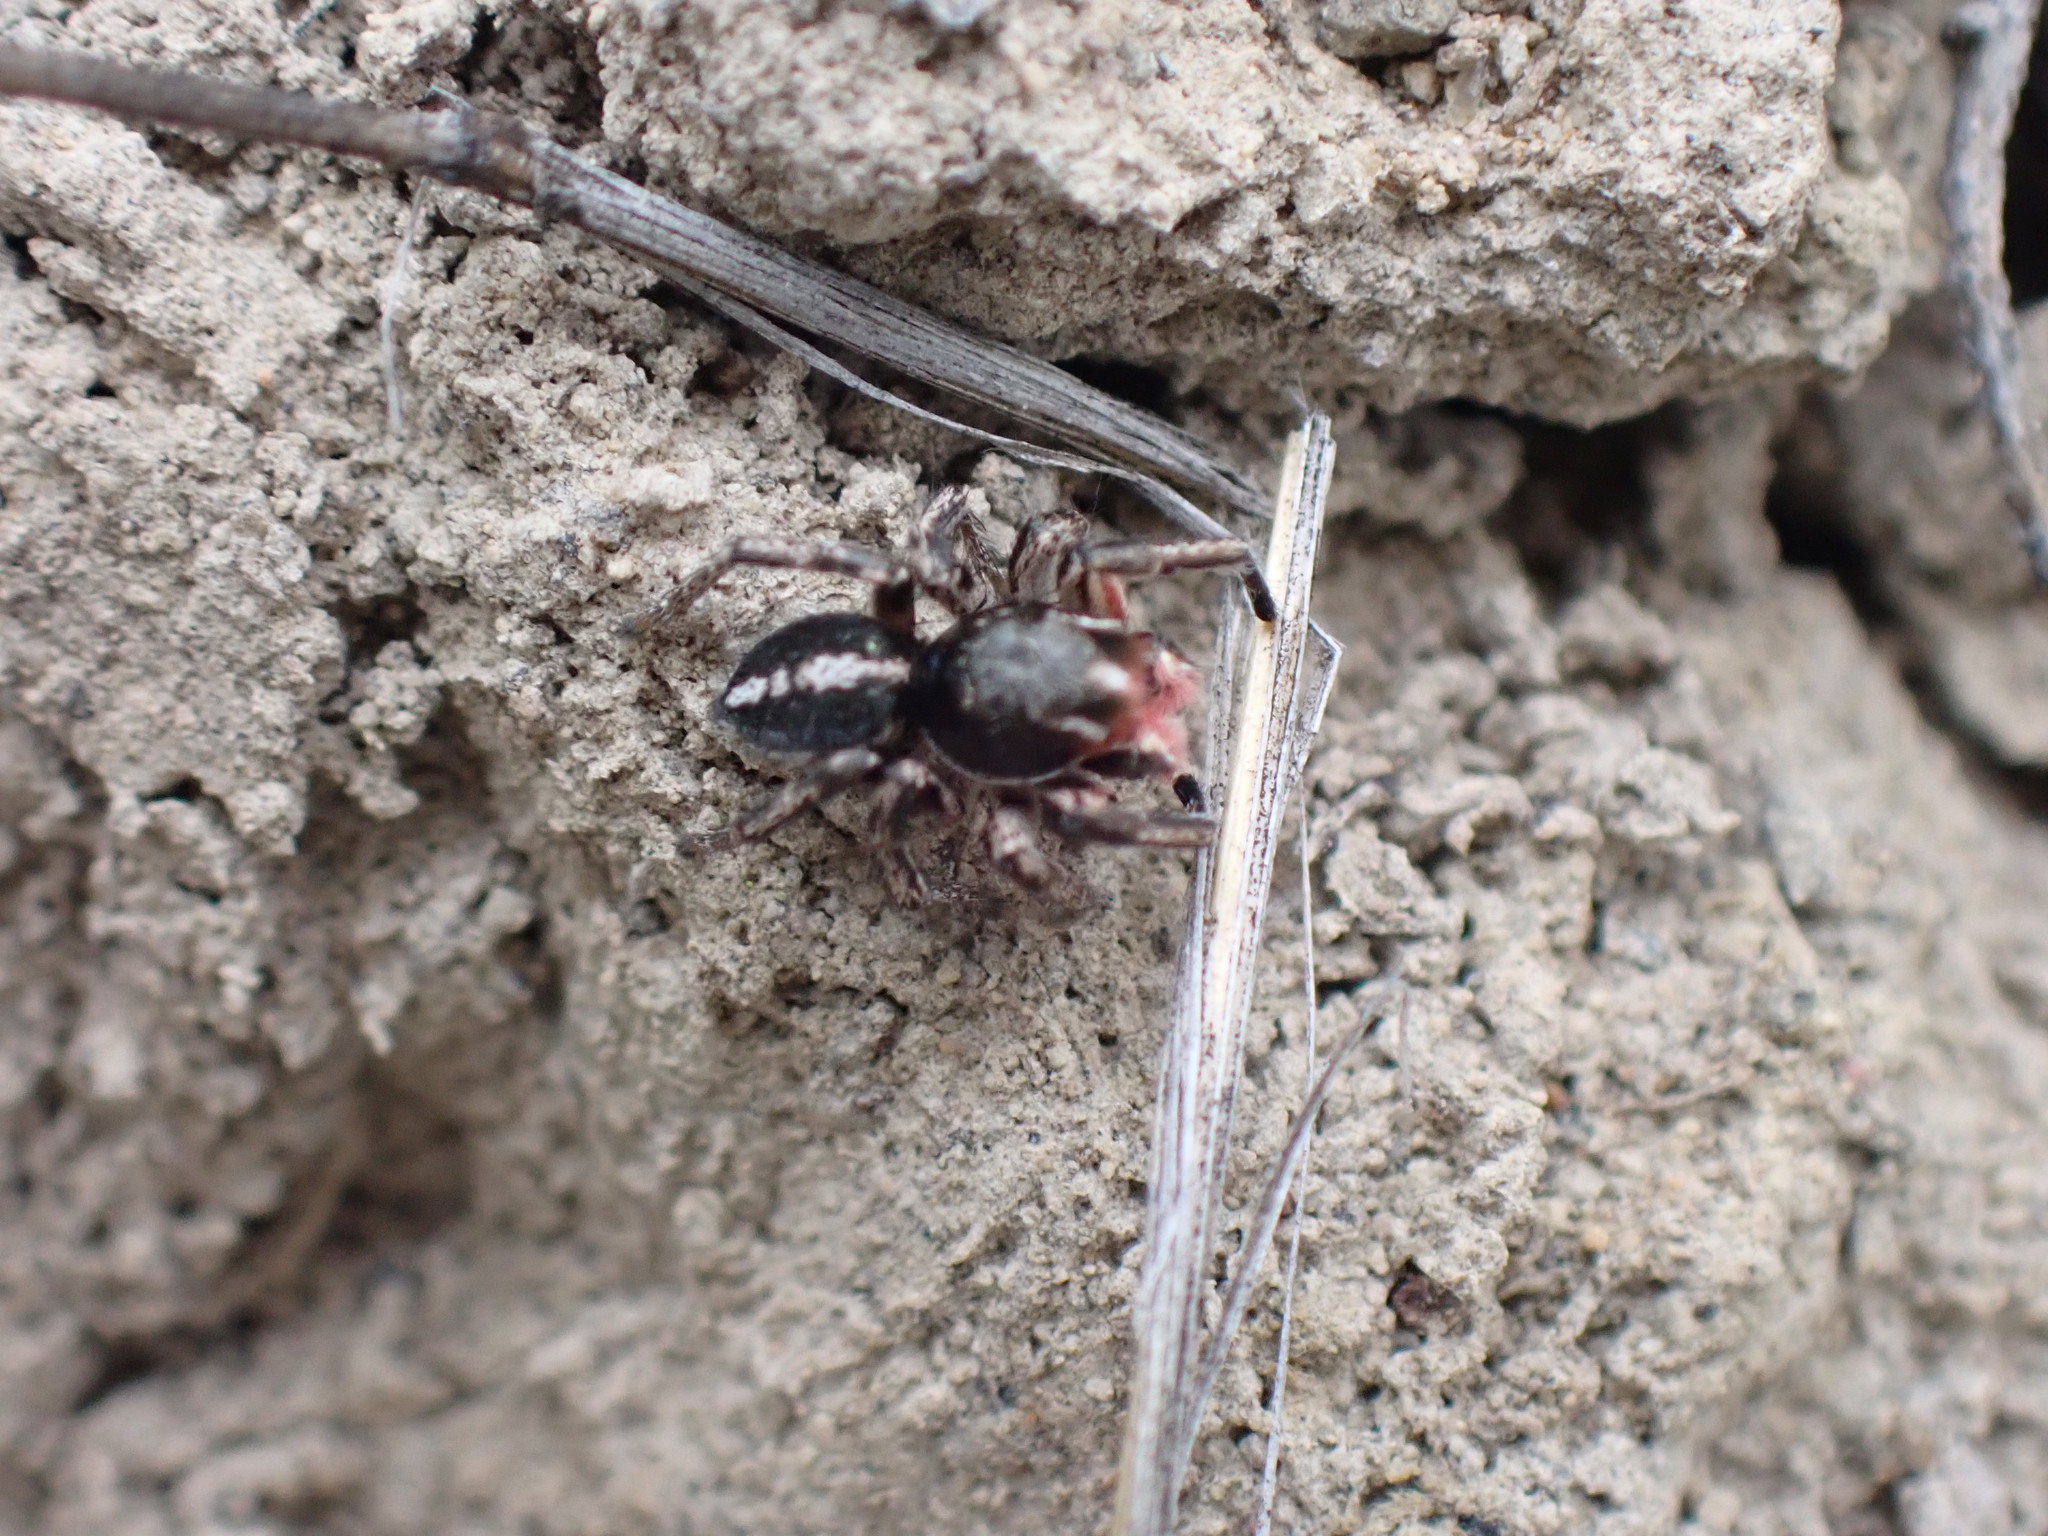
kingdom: Animalia
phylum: Arthropoda
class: Arachnida
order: Araneae
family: Salticidae
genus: Habronattus
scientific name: Habronattus sansoni
